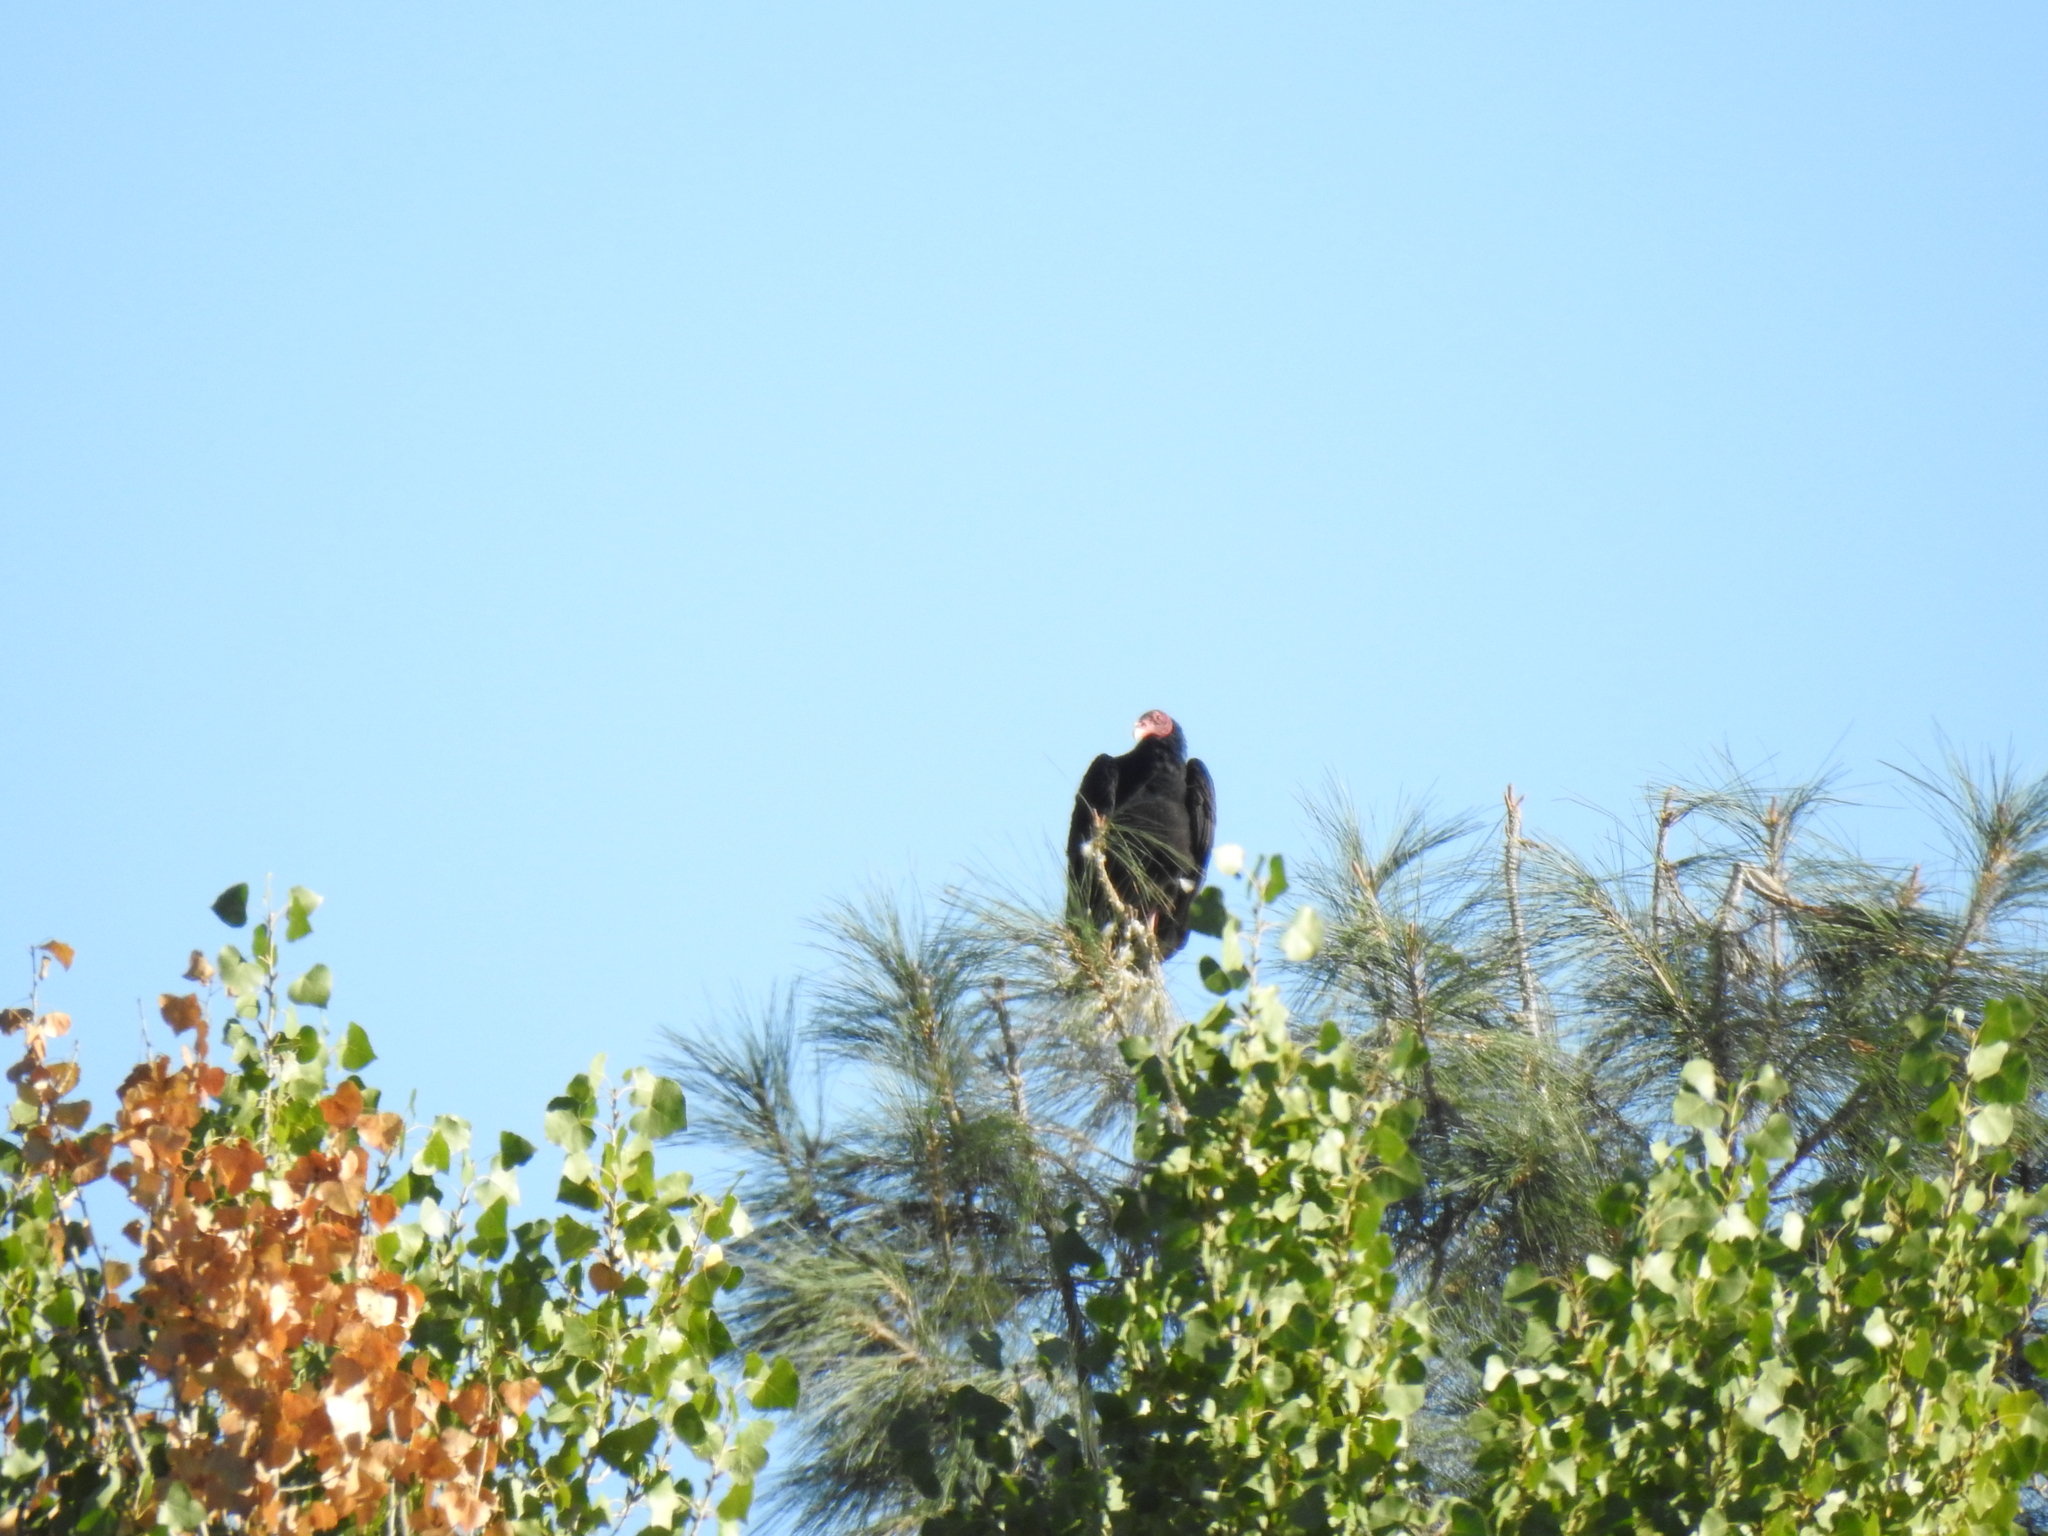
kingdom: Animalia
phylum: Chordata
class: Aves
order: Accipitriformes
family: Cathartidae
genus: Cathartes
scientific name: Cathartes aura
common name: Turkey vulture
